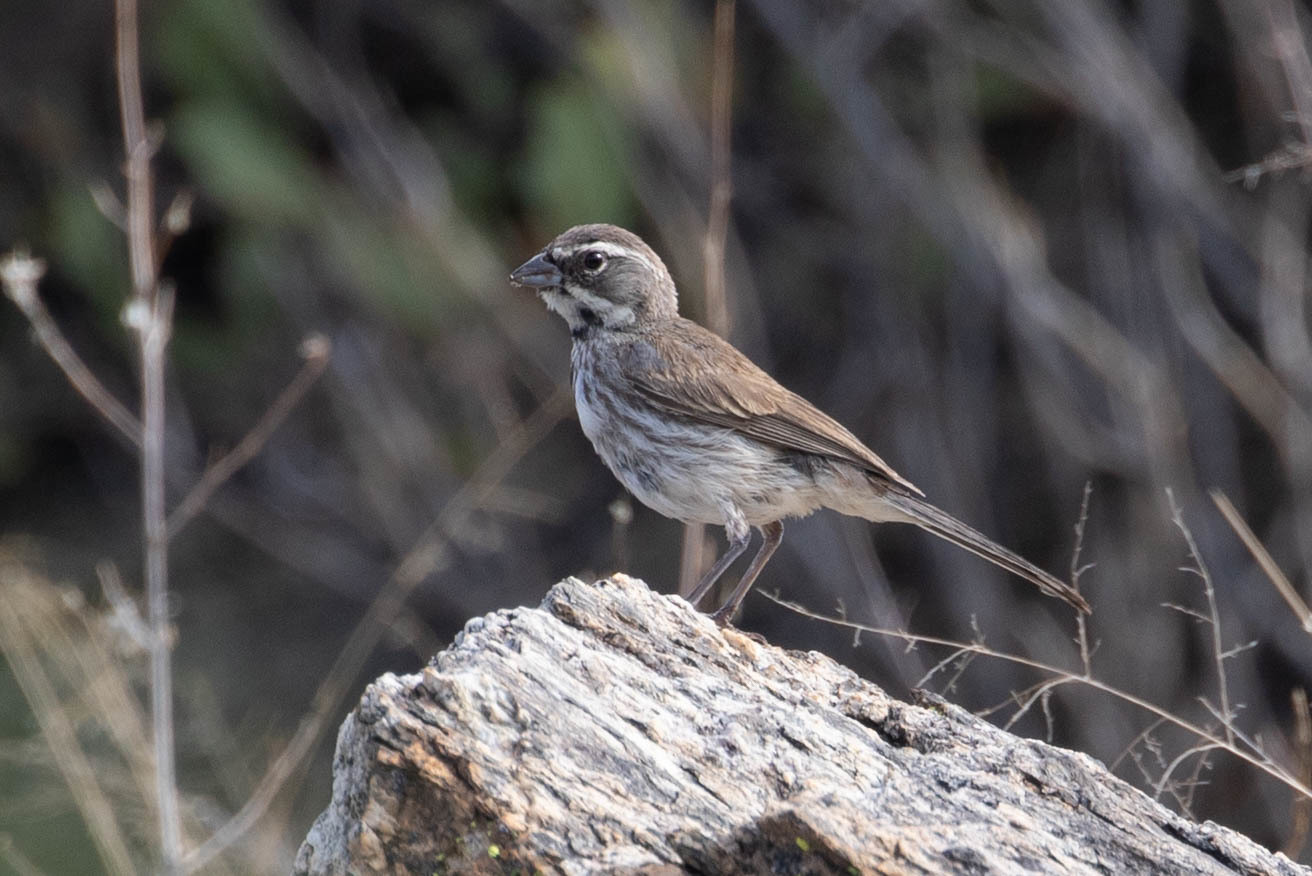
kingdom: Animalia
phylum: Chordata
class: Aves
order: Passeriformes
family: Passerellidae
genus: Amphispiza
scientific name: Amphispiza bilineata
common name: Black-throated sparrow
